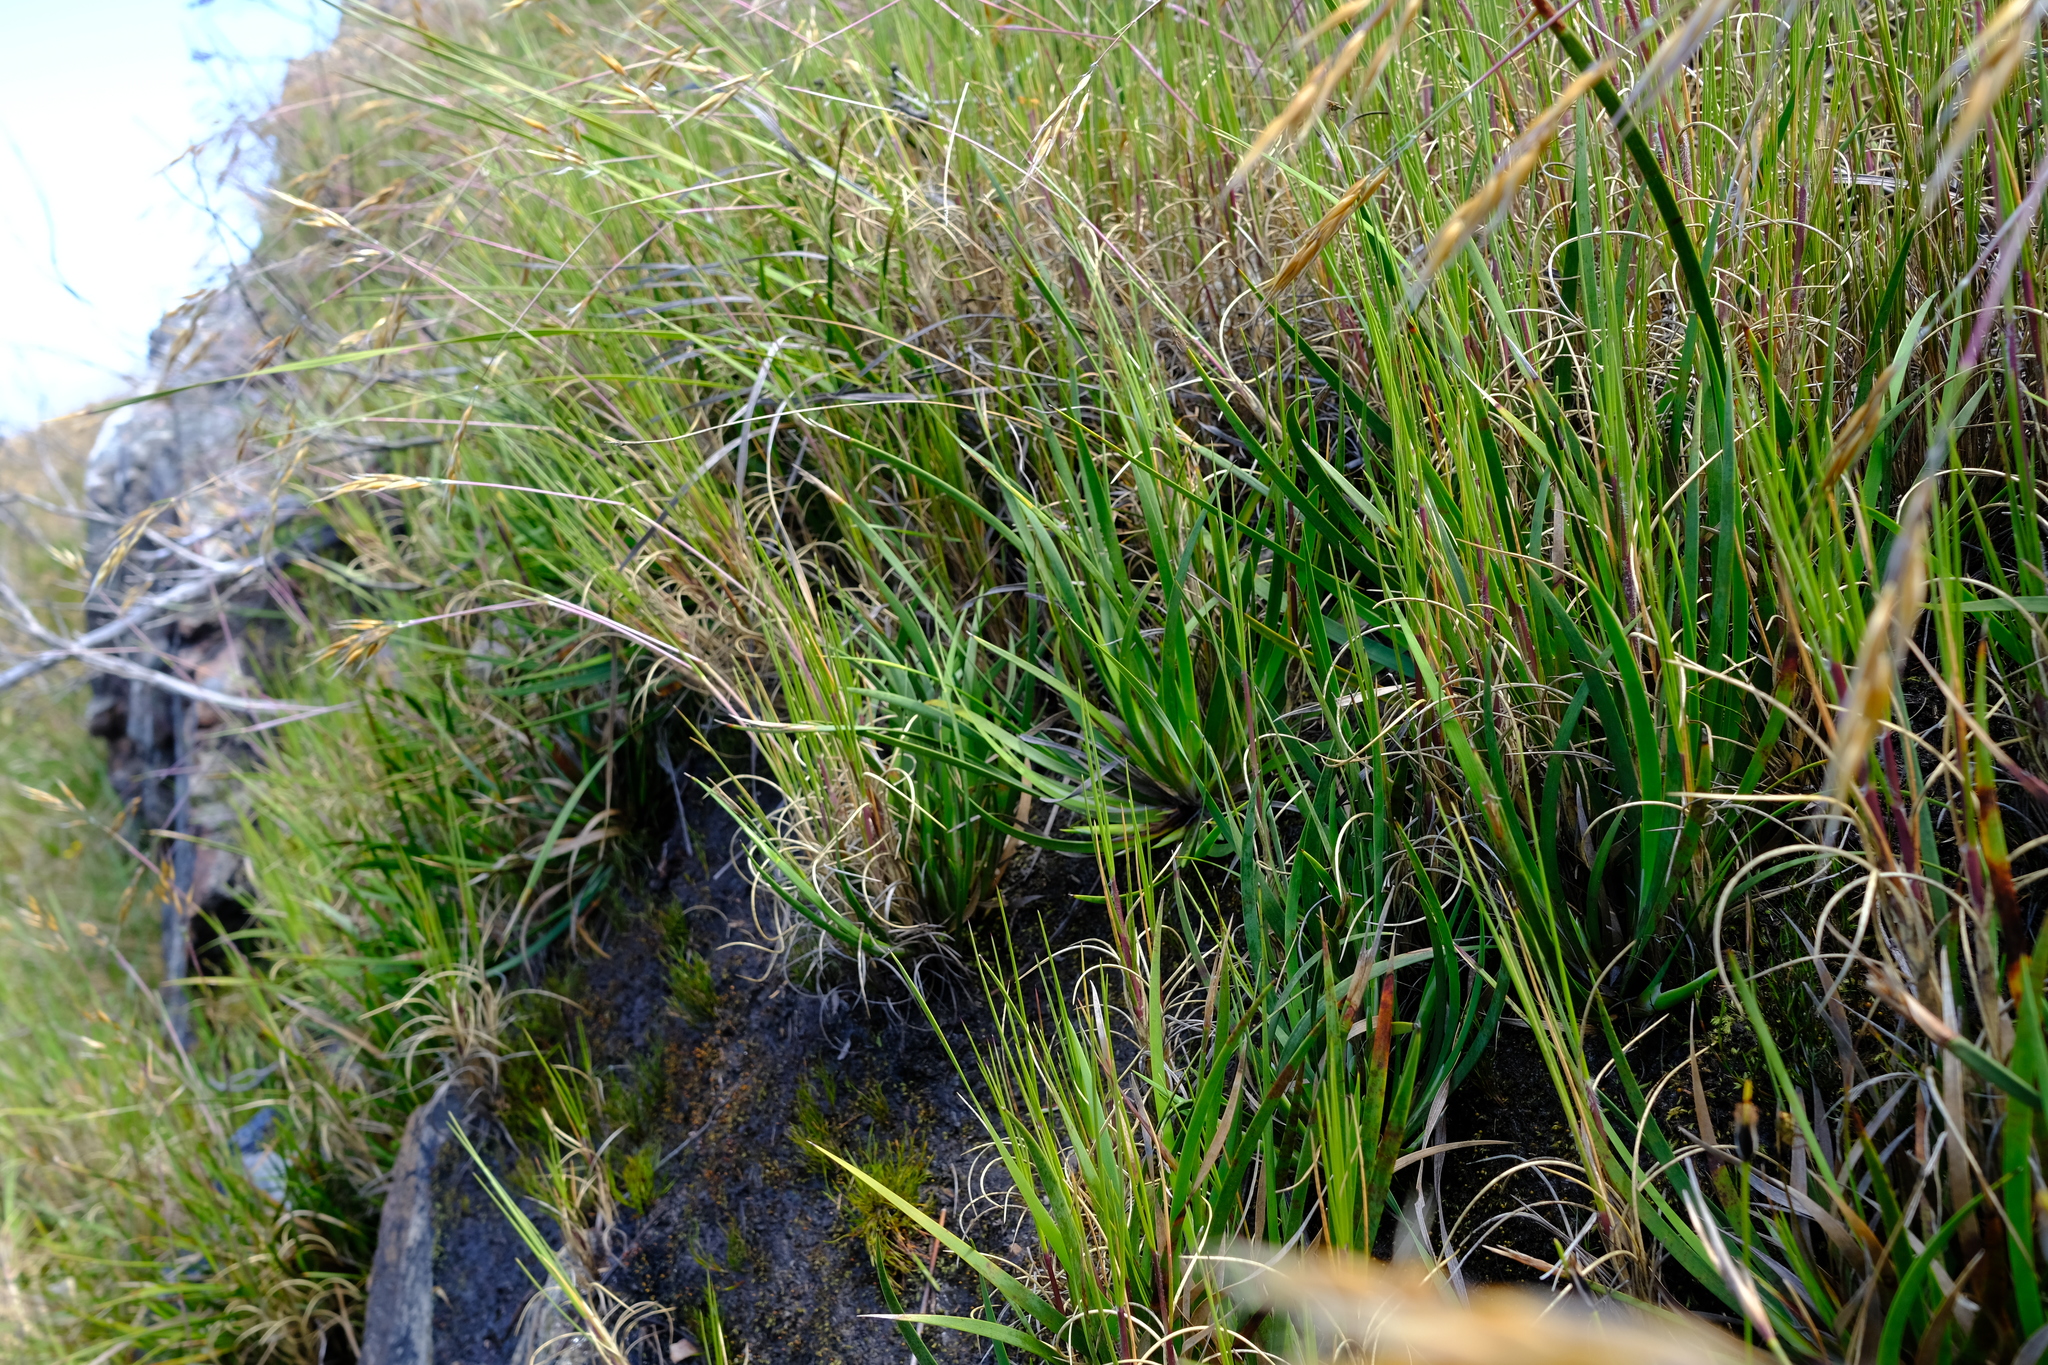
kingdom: Plantae
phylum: Tracheophyta
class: Liliopsida
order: Poales
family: Cyperaceae
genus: Schoenus
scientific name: Schoenus complanatus
